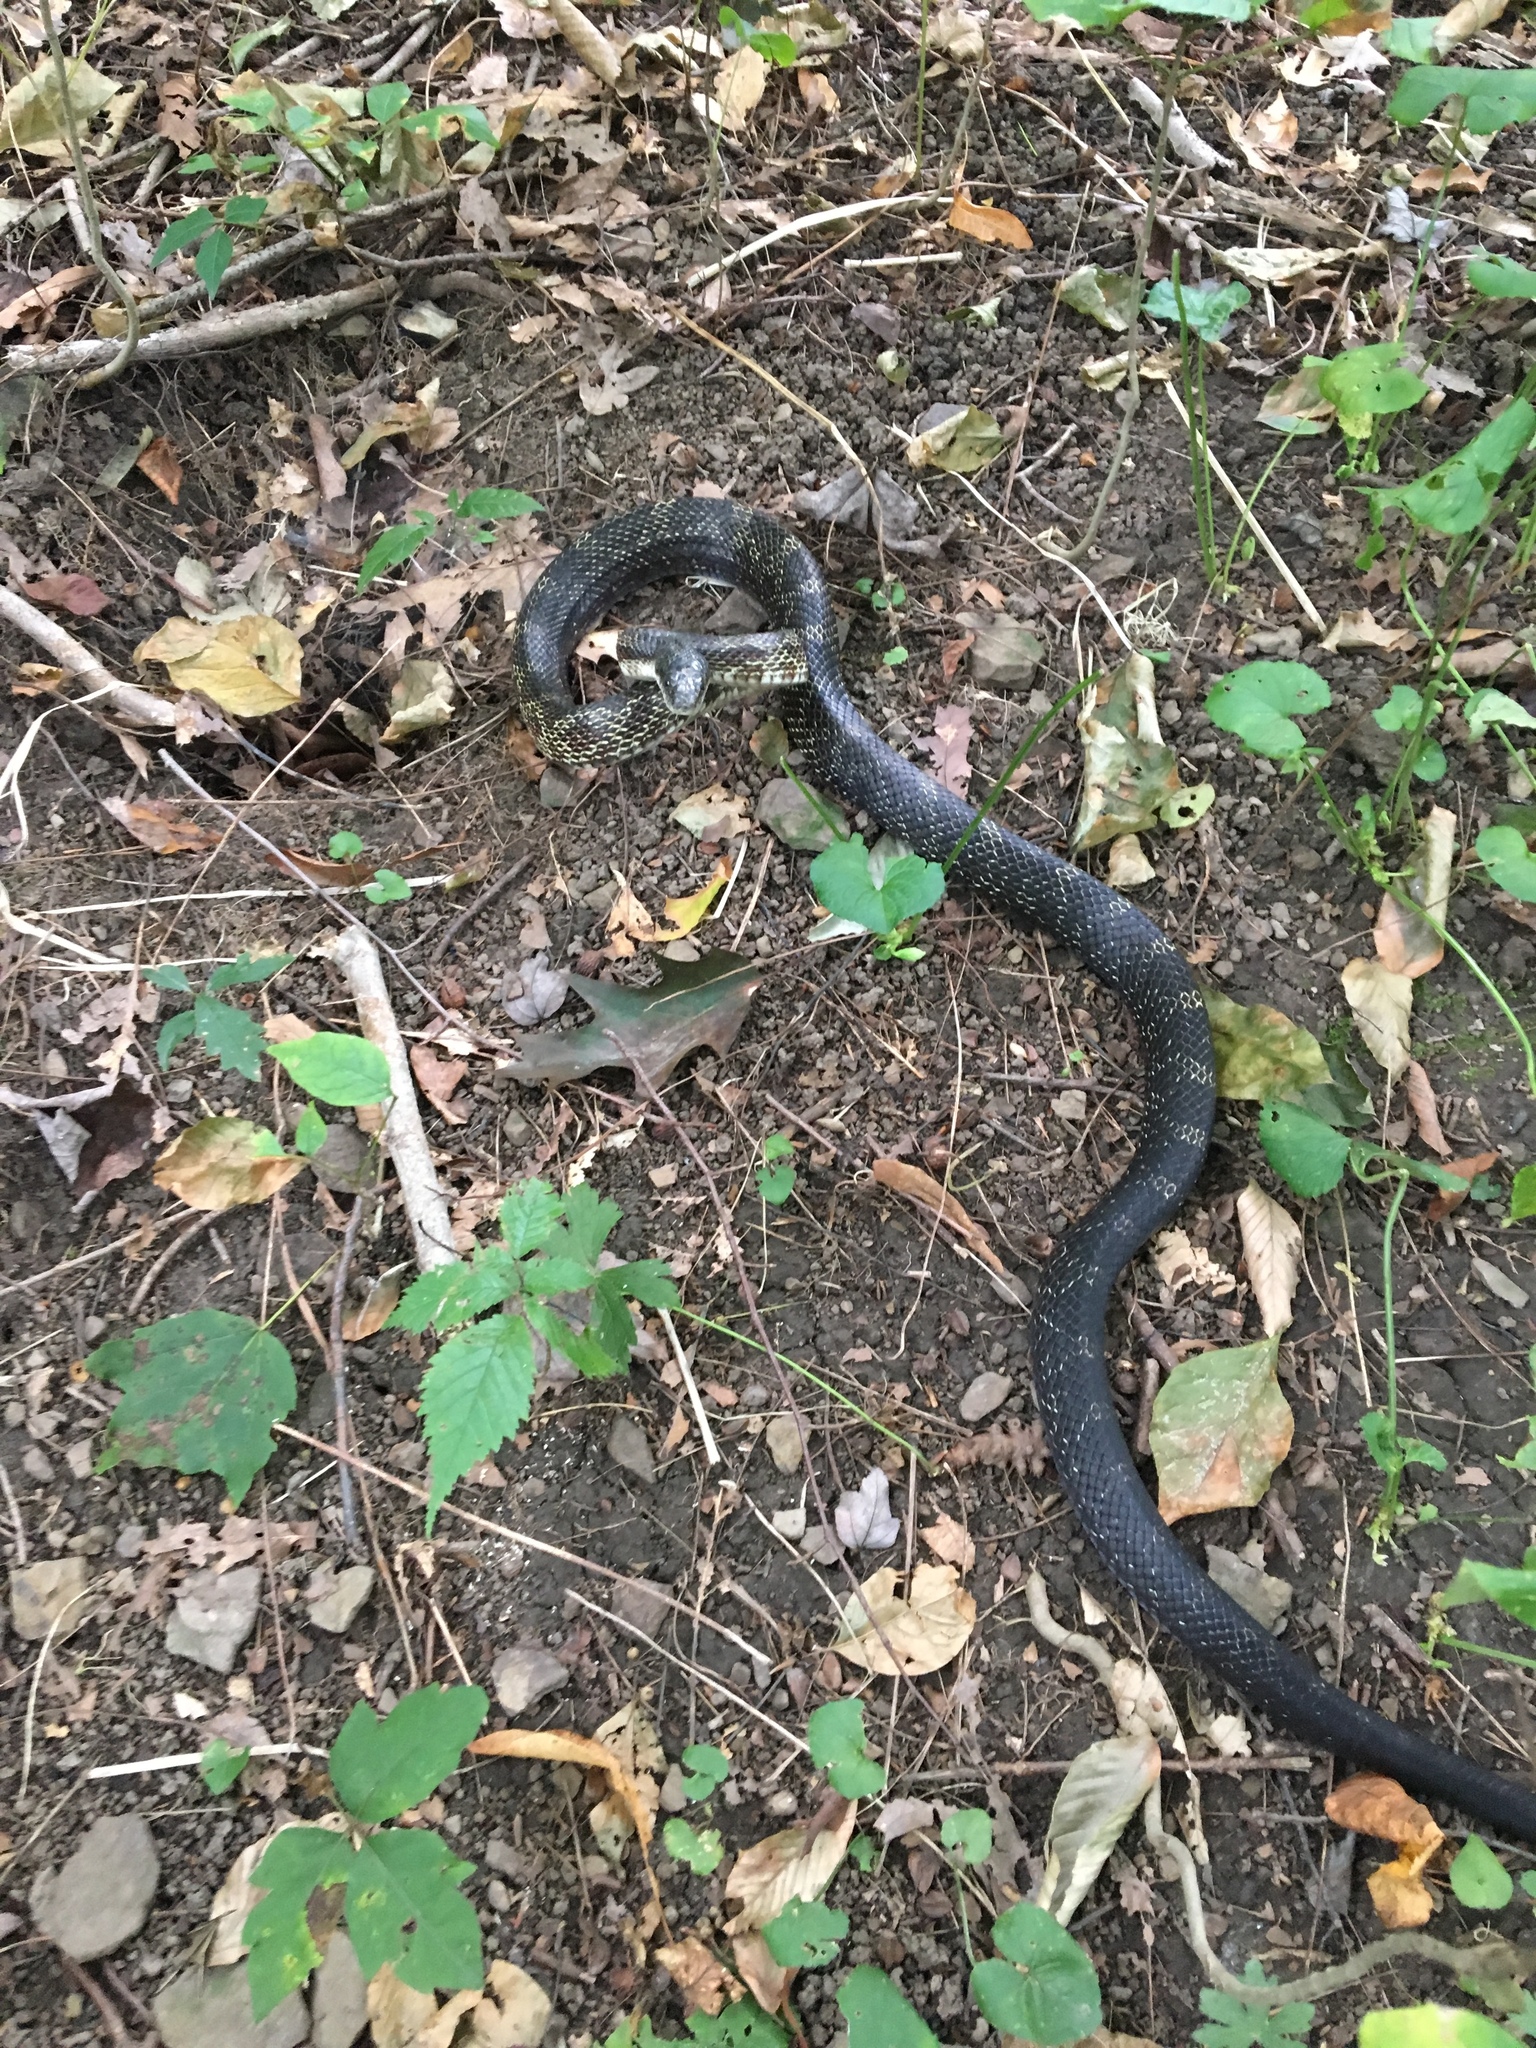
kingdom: Animalia
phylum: Chordata
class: Squamata
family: Colubridae
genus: Pantherophis
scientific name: Pantherophis spiloides
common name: Gray rat snake
